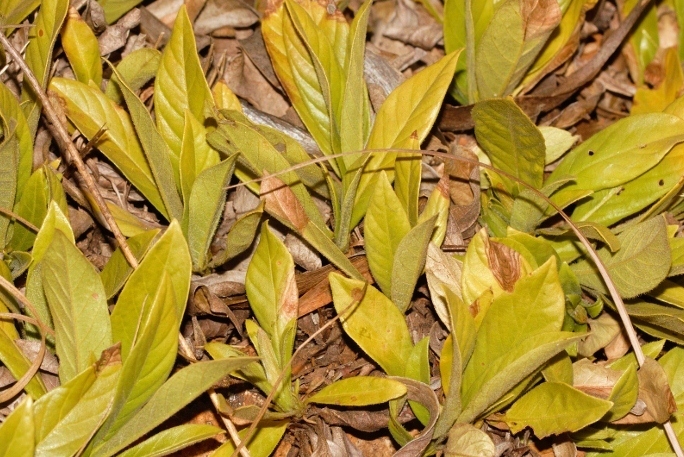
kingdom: Plantae
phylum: Tracheophyta
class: Magnoliopsida
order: Gentianales
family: Rubiaceae
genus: Leptactina
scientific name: Leptactina benguelensis
